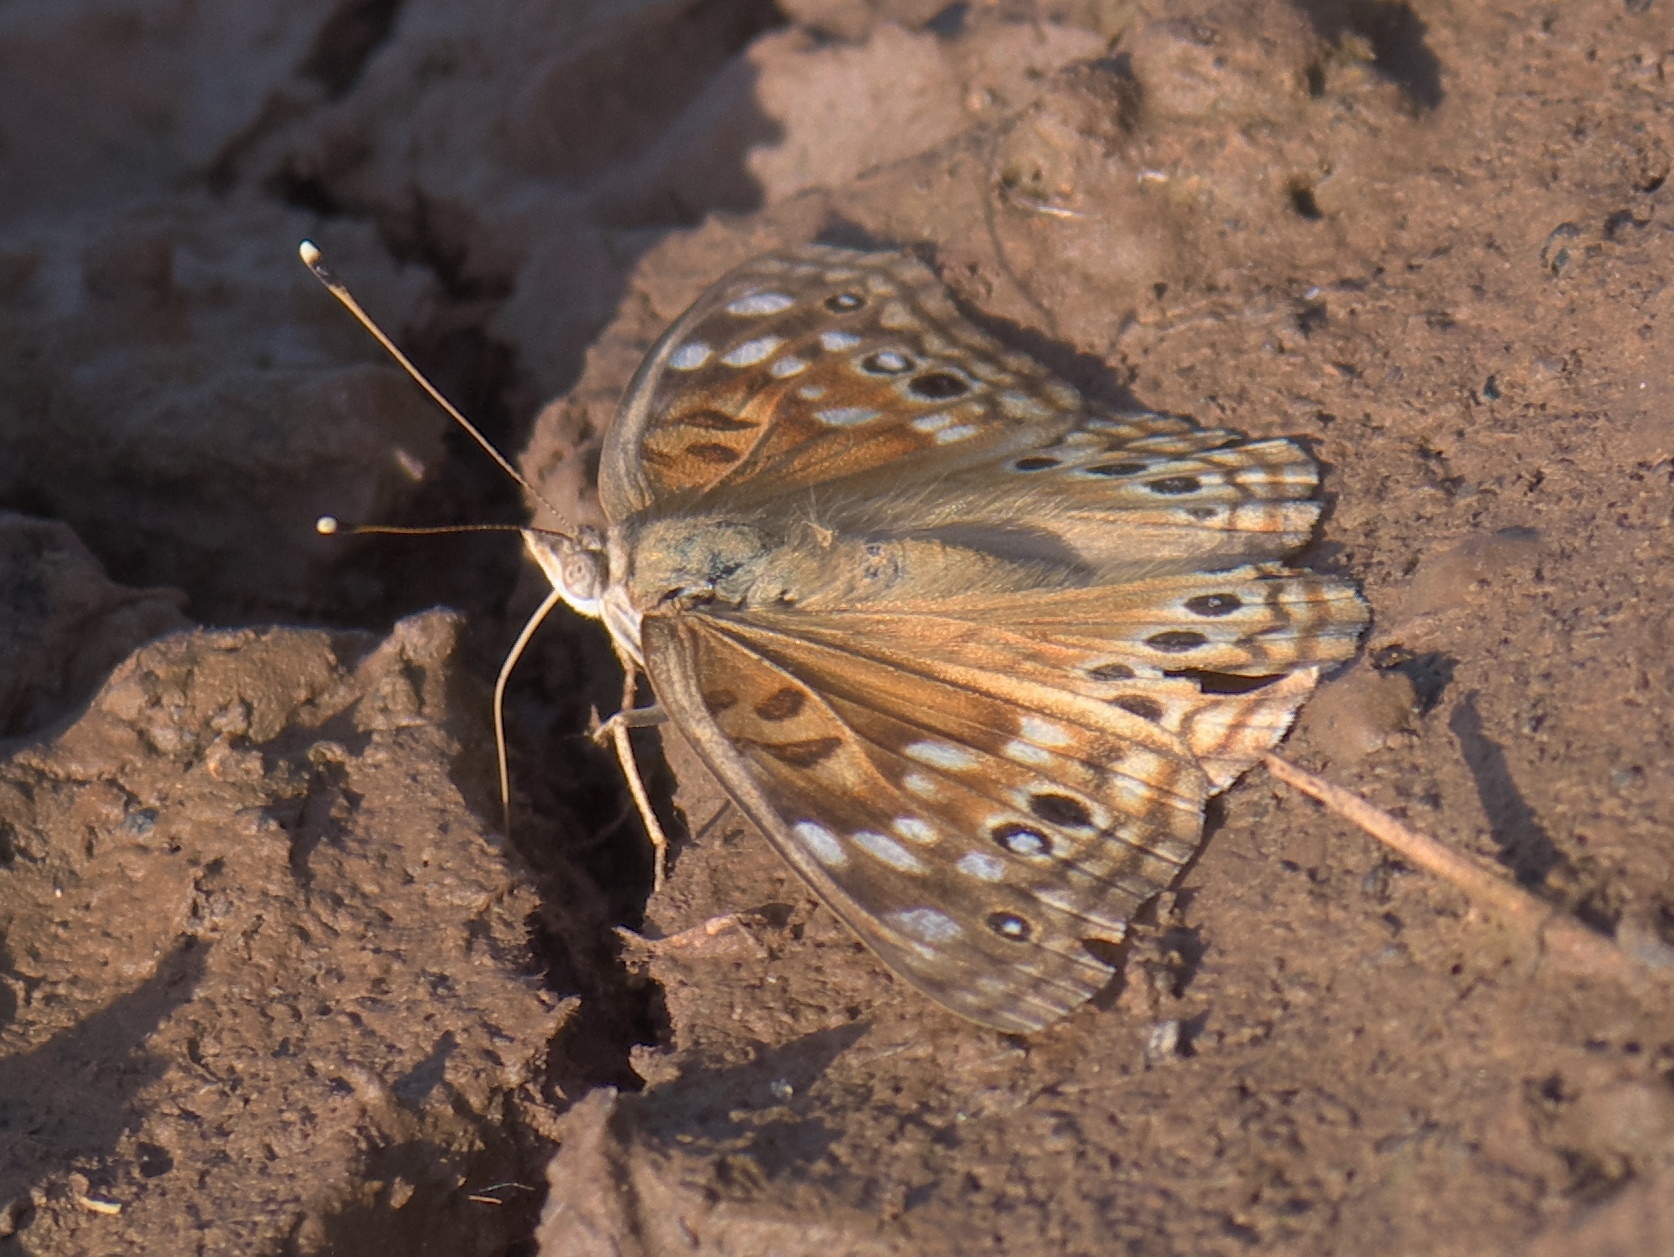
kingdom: Animalia
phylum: Arthropoda
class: Insecta
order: Lepidoptera
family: Nymphalidae
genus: Asterocampa
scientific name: Asterocampa leilia
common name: Empress leilia
